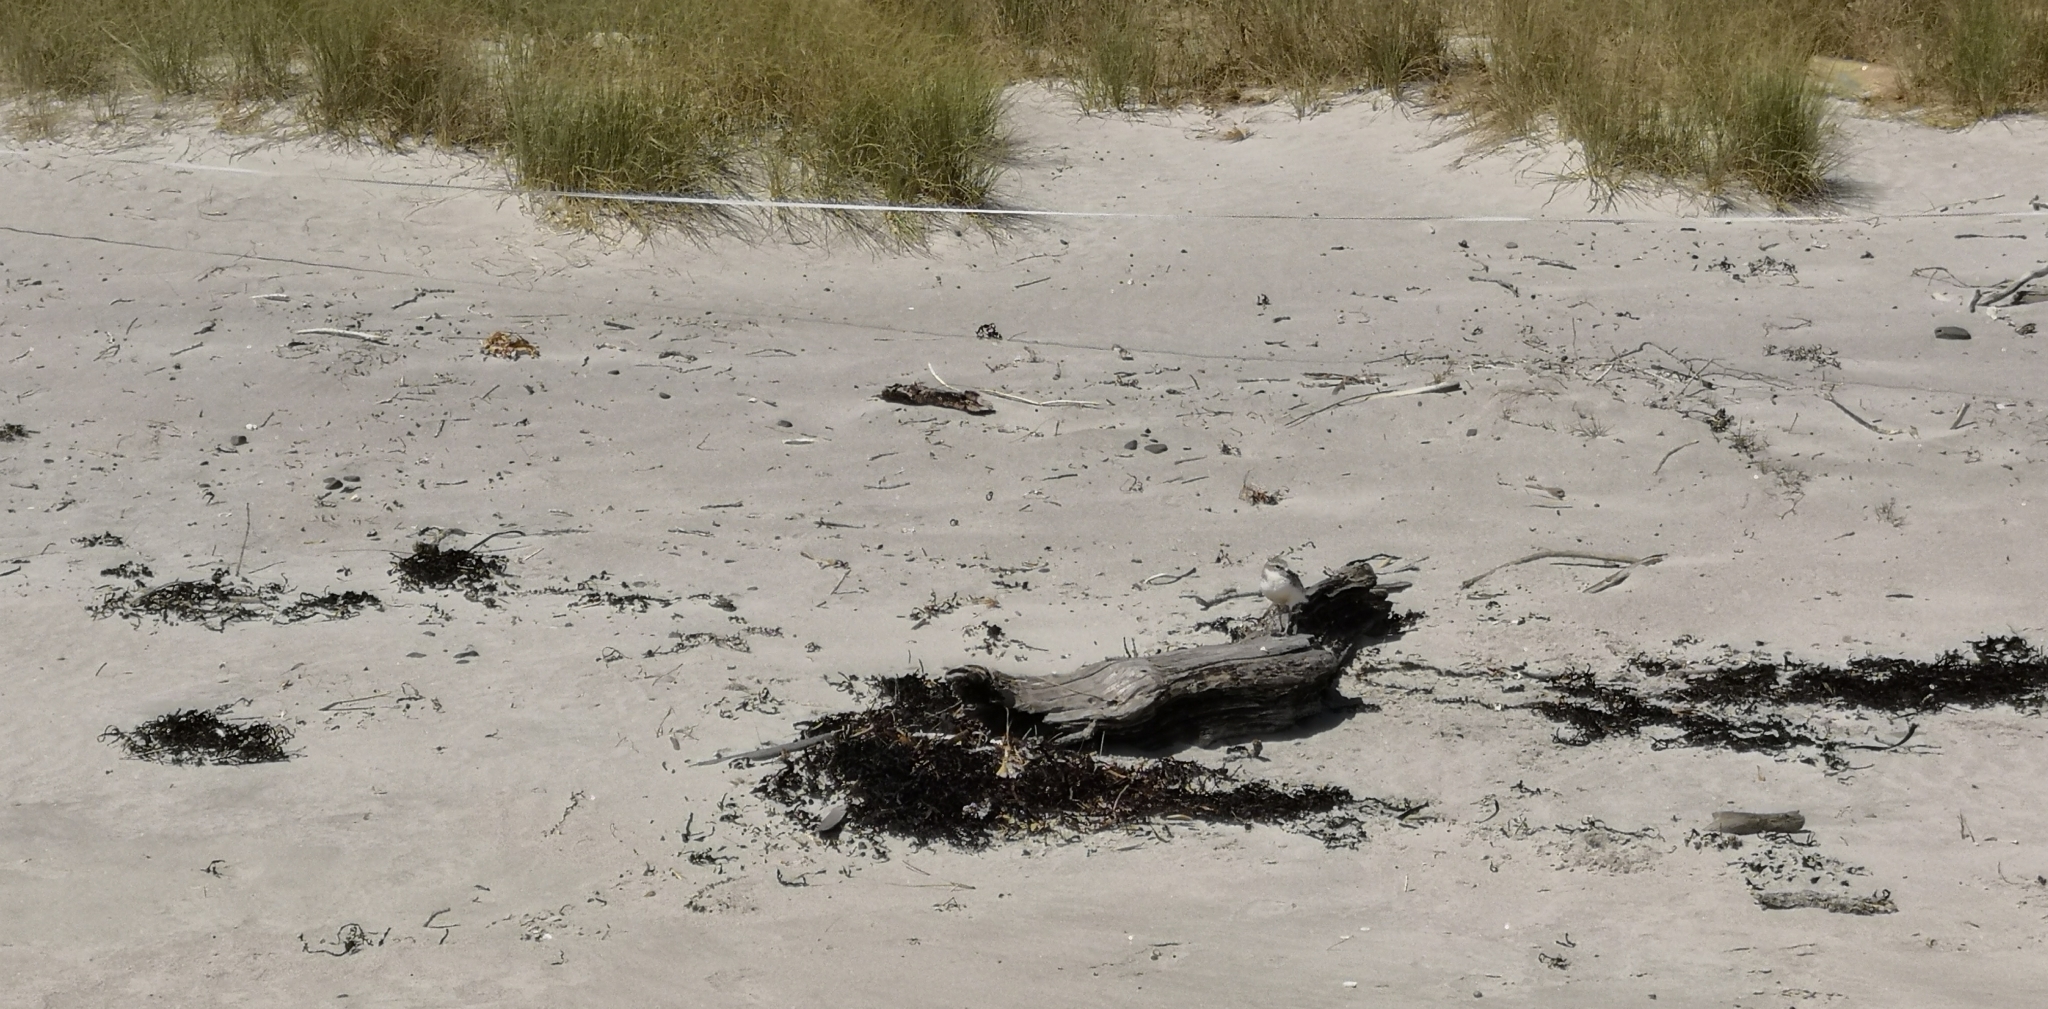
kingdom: Animalia
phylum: Chordata
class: Aves
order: Charadriiformes
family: Charadriidae
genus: Anarhynchus
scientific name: Anarhynchus
